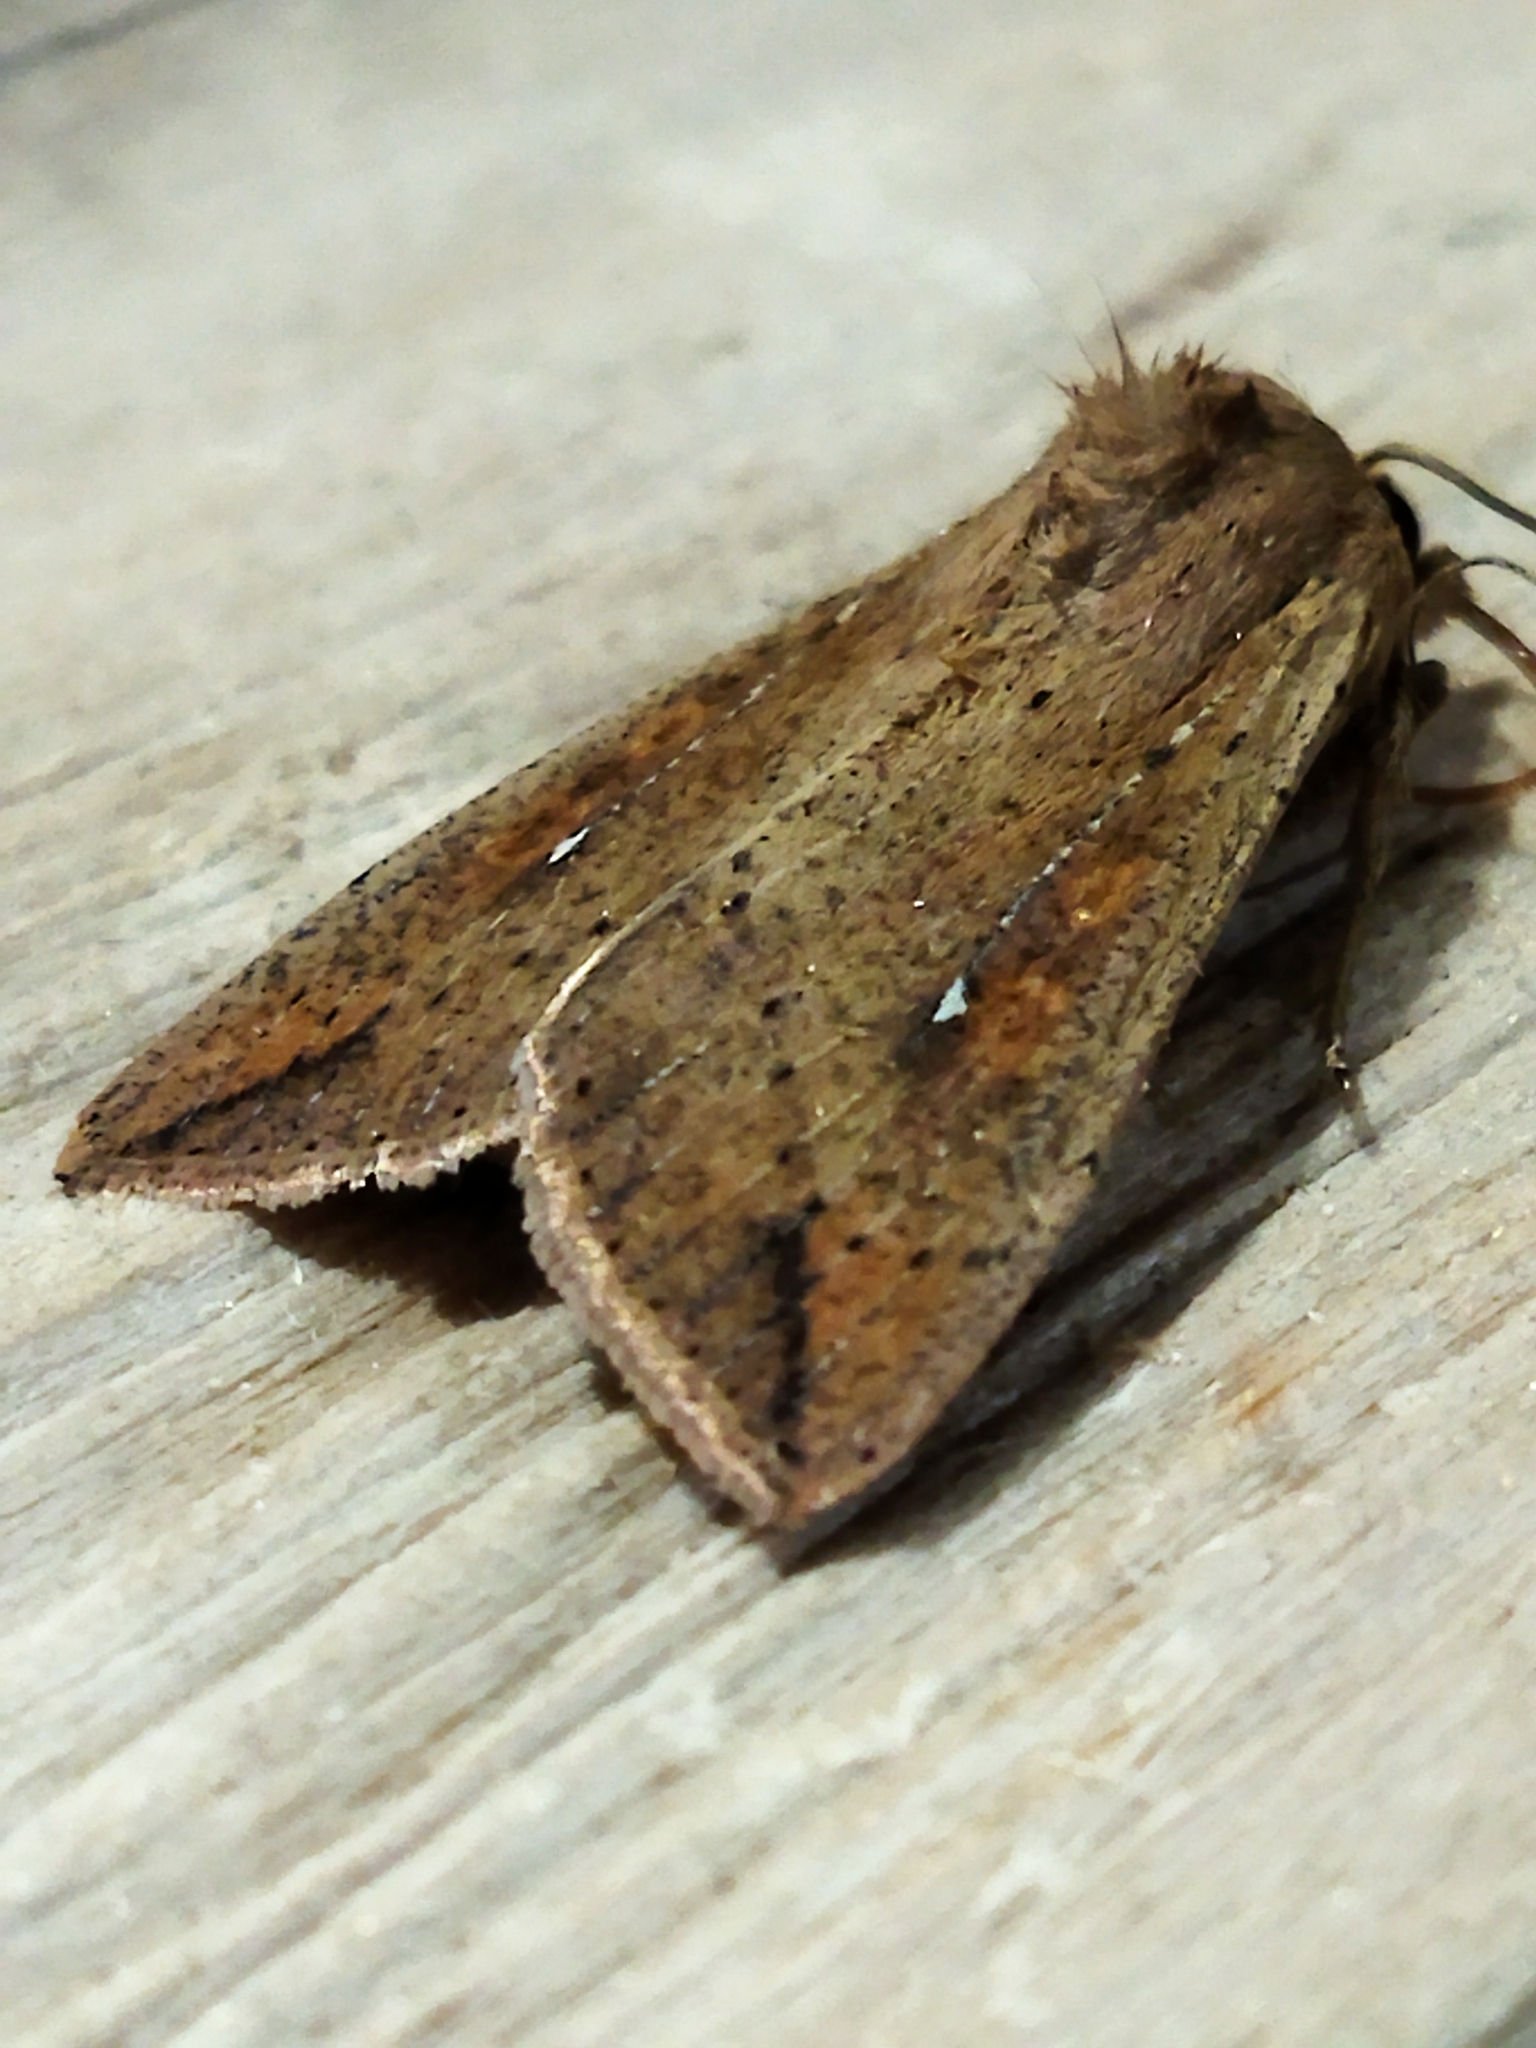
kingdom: Animalia
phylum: Arthropoda
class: Insecta
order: Lepidoptera
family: Noctuidae
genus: Mythimna
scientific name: Mythimna unipuncta
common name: White-speck
